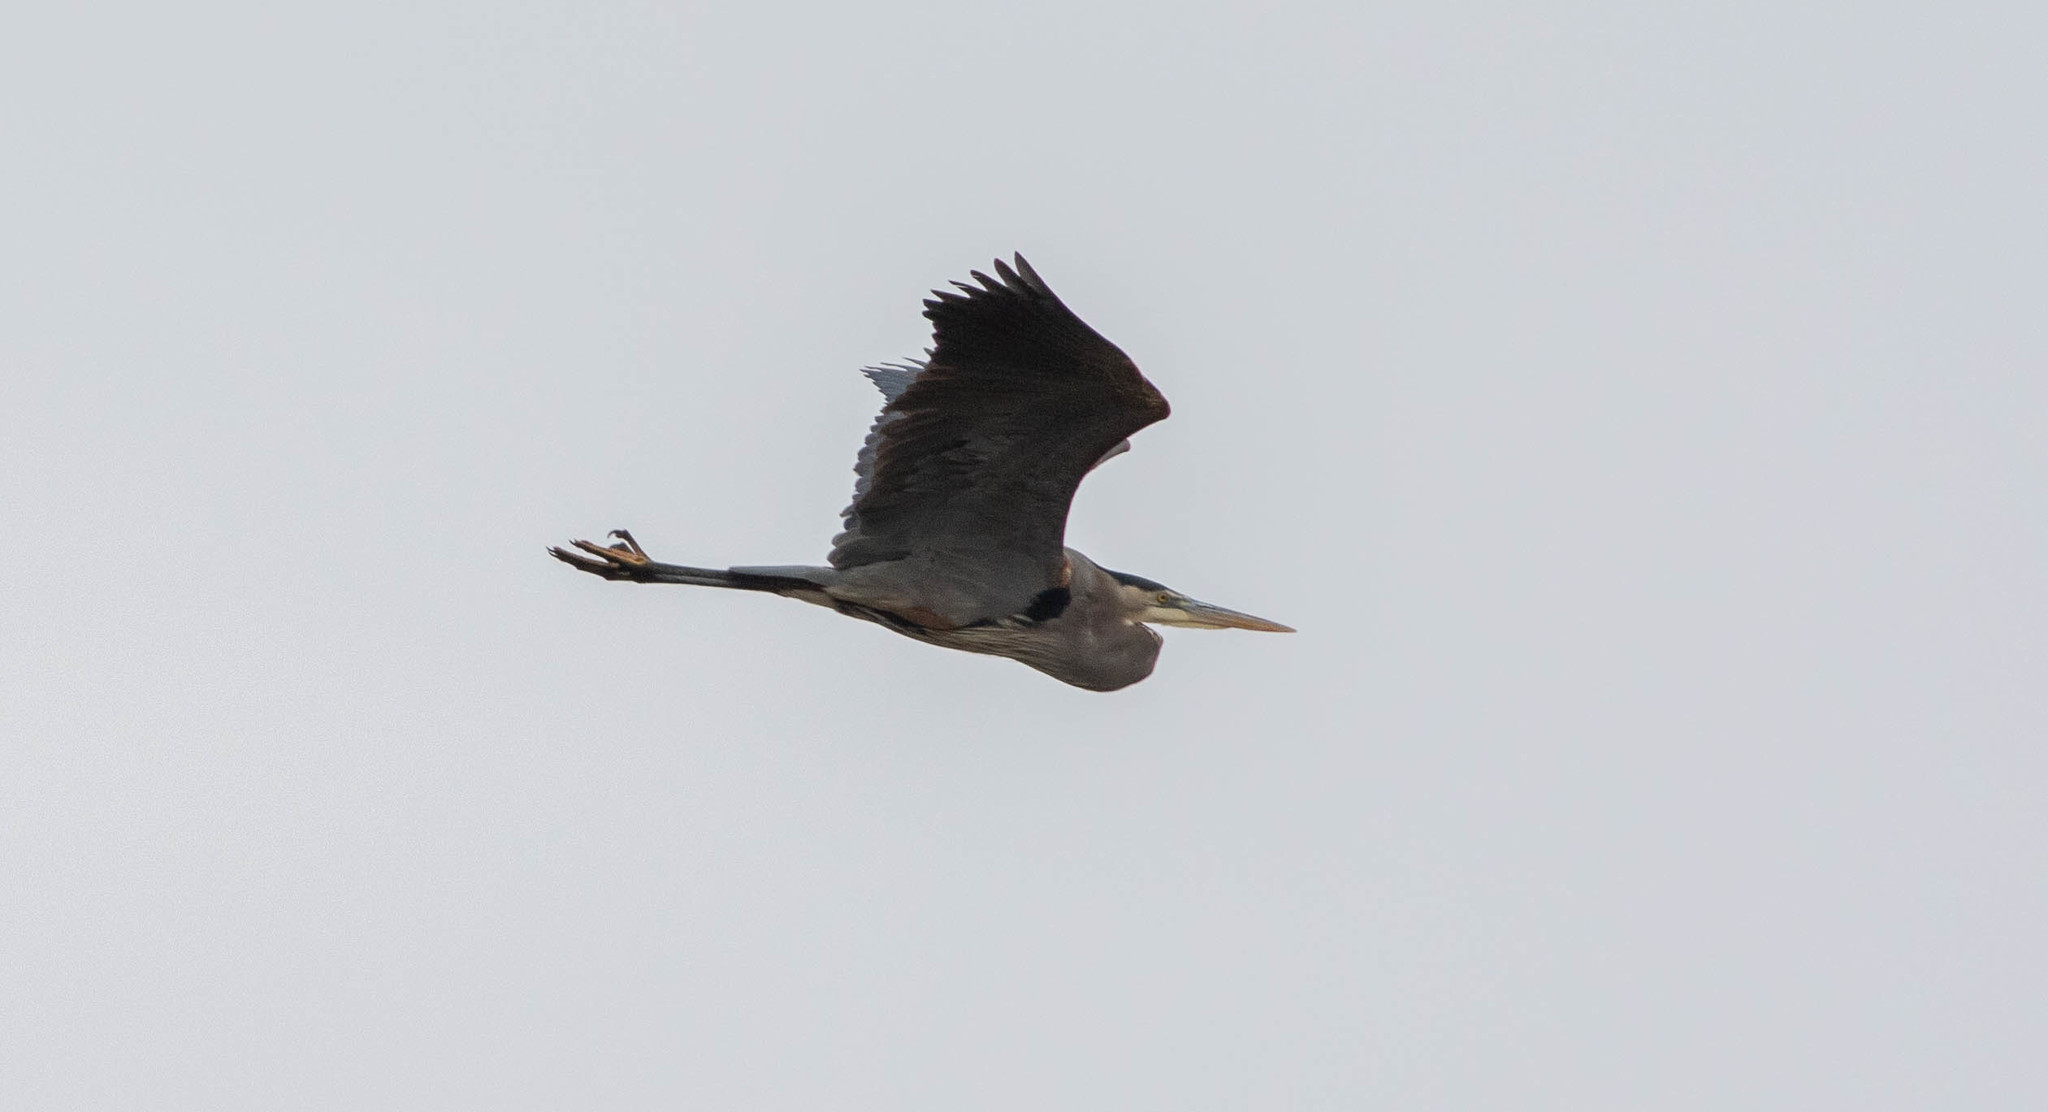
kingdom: Animalia
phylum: Chordata
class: Aves
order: Pelecaniformes
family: Ardeidae
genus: Ardea
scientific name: Ardea herodias
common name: Great blue heron
